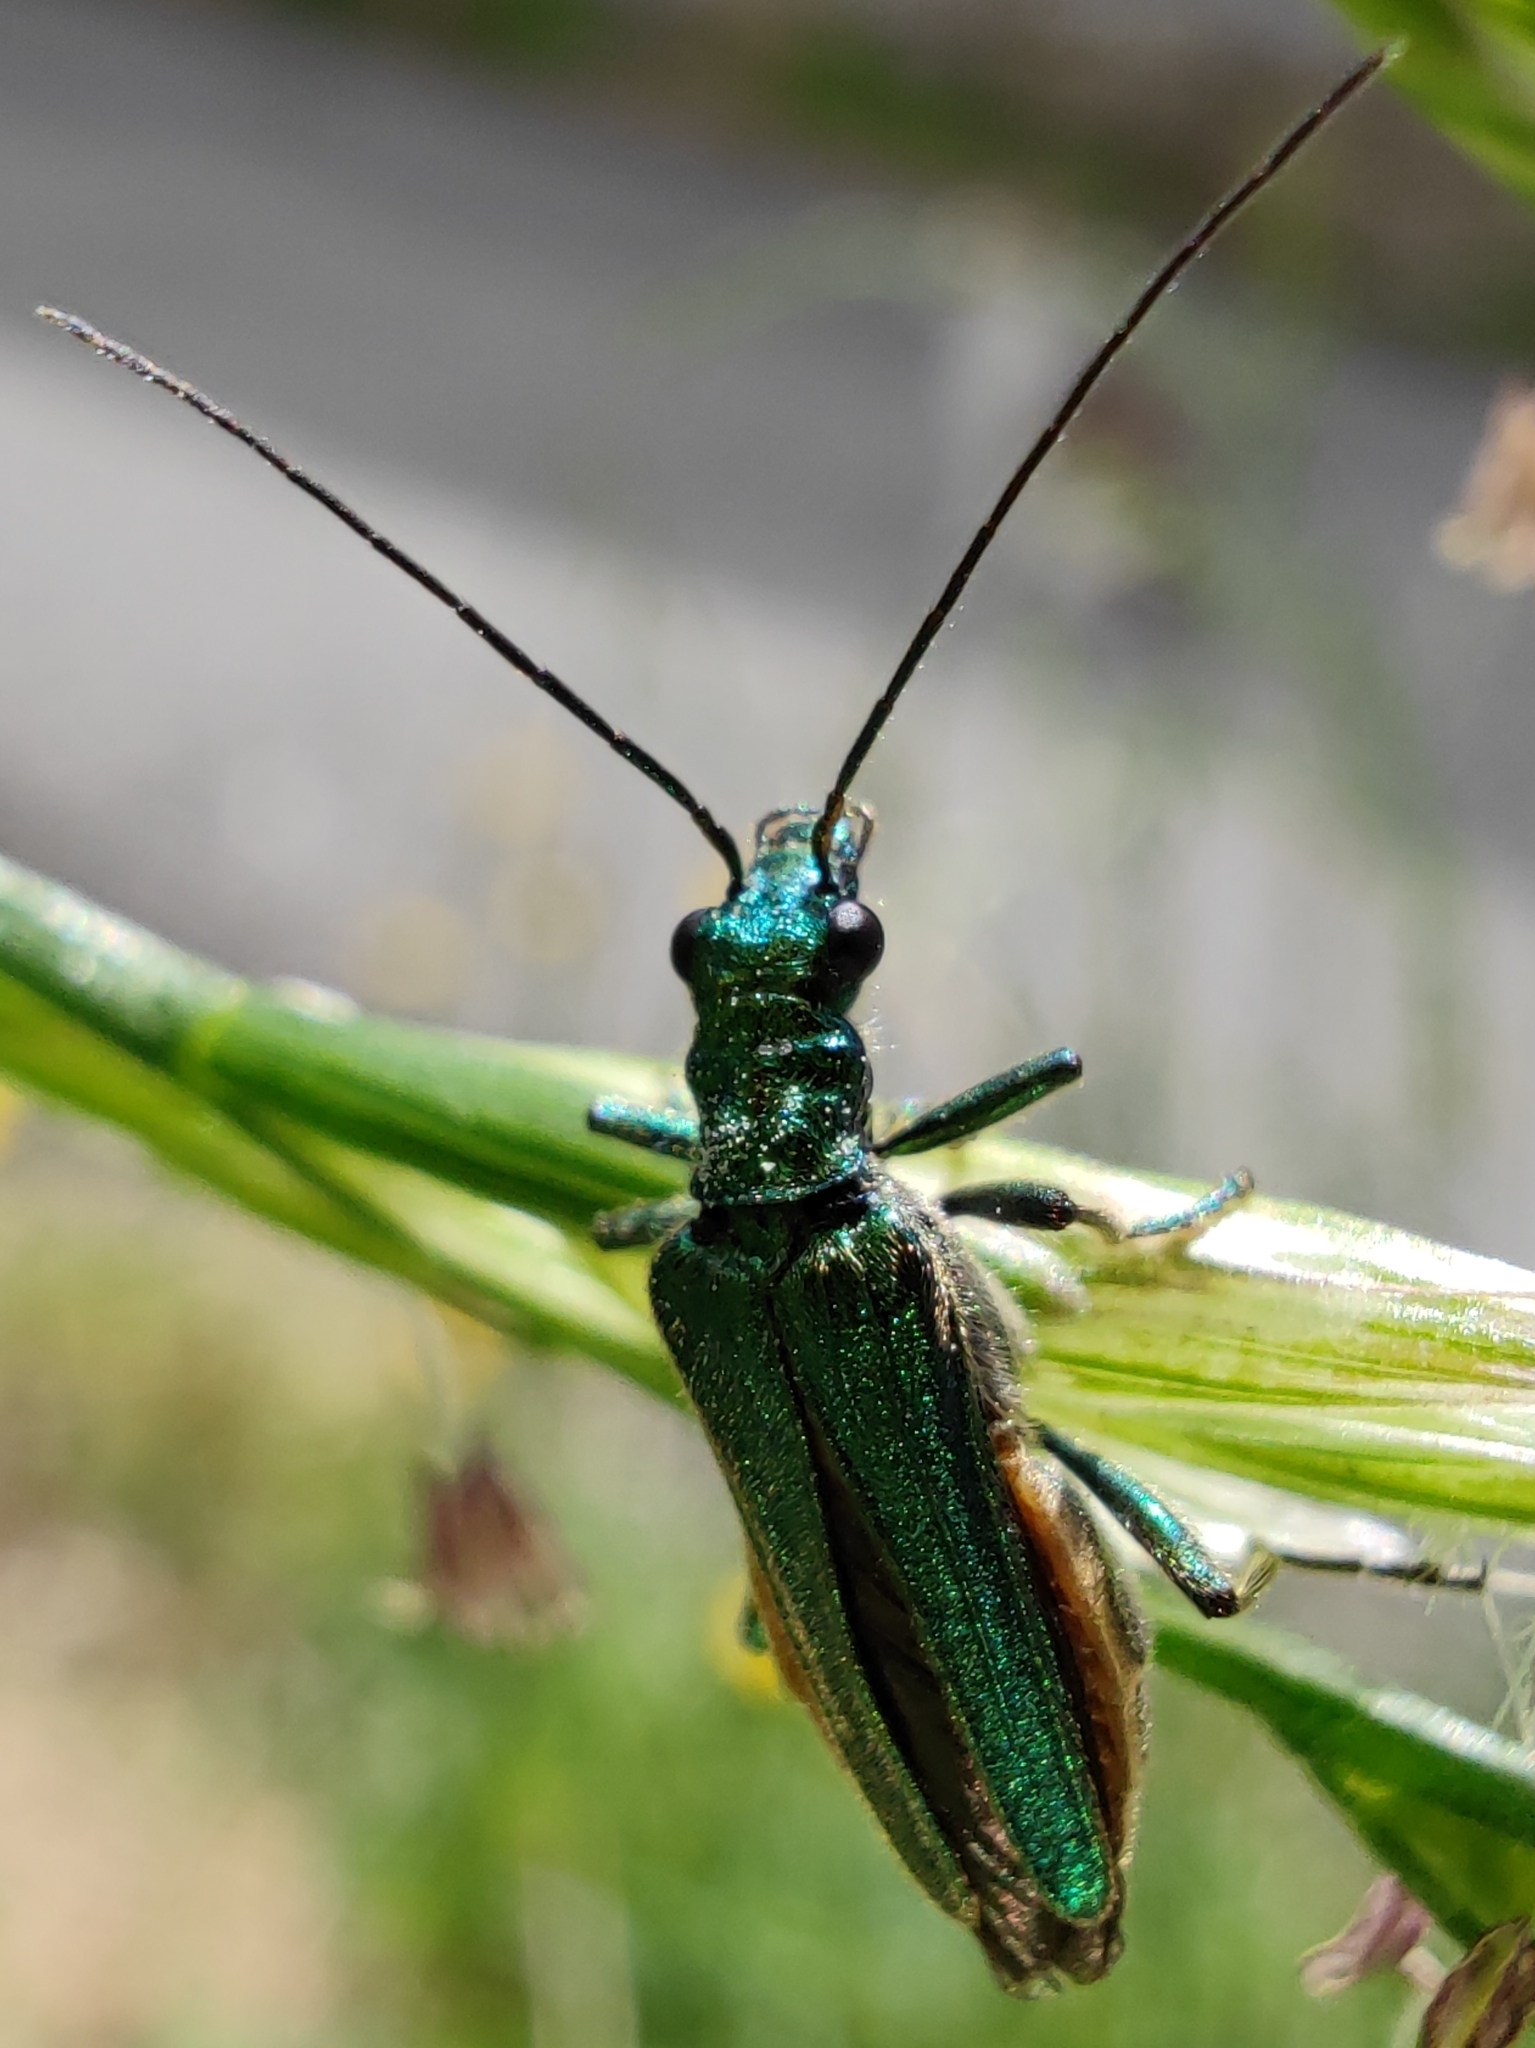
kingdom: Animalia
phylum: Arthropoda
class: Insecta
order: Coleoptera
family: Oedemeridae
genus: Oedemera
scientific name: Oedemera nobilis
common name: Swollen-thighed beetle
